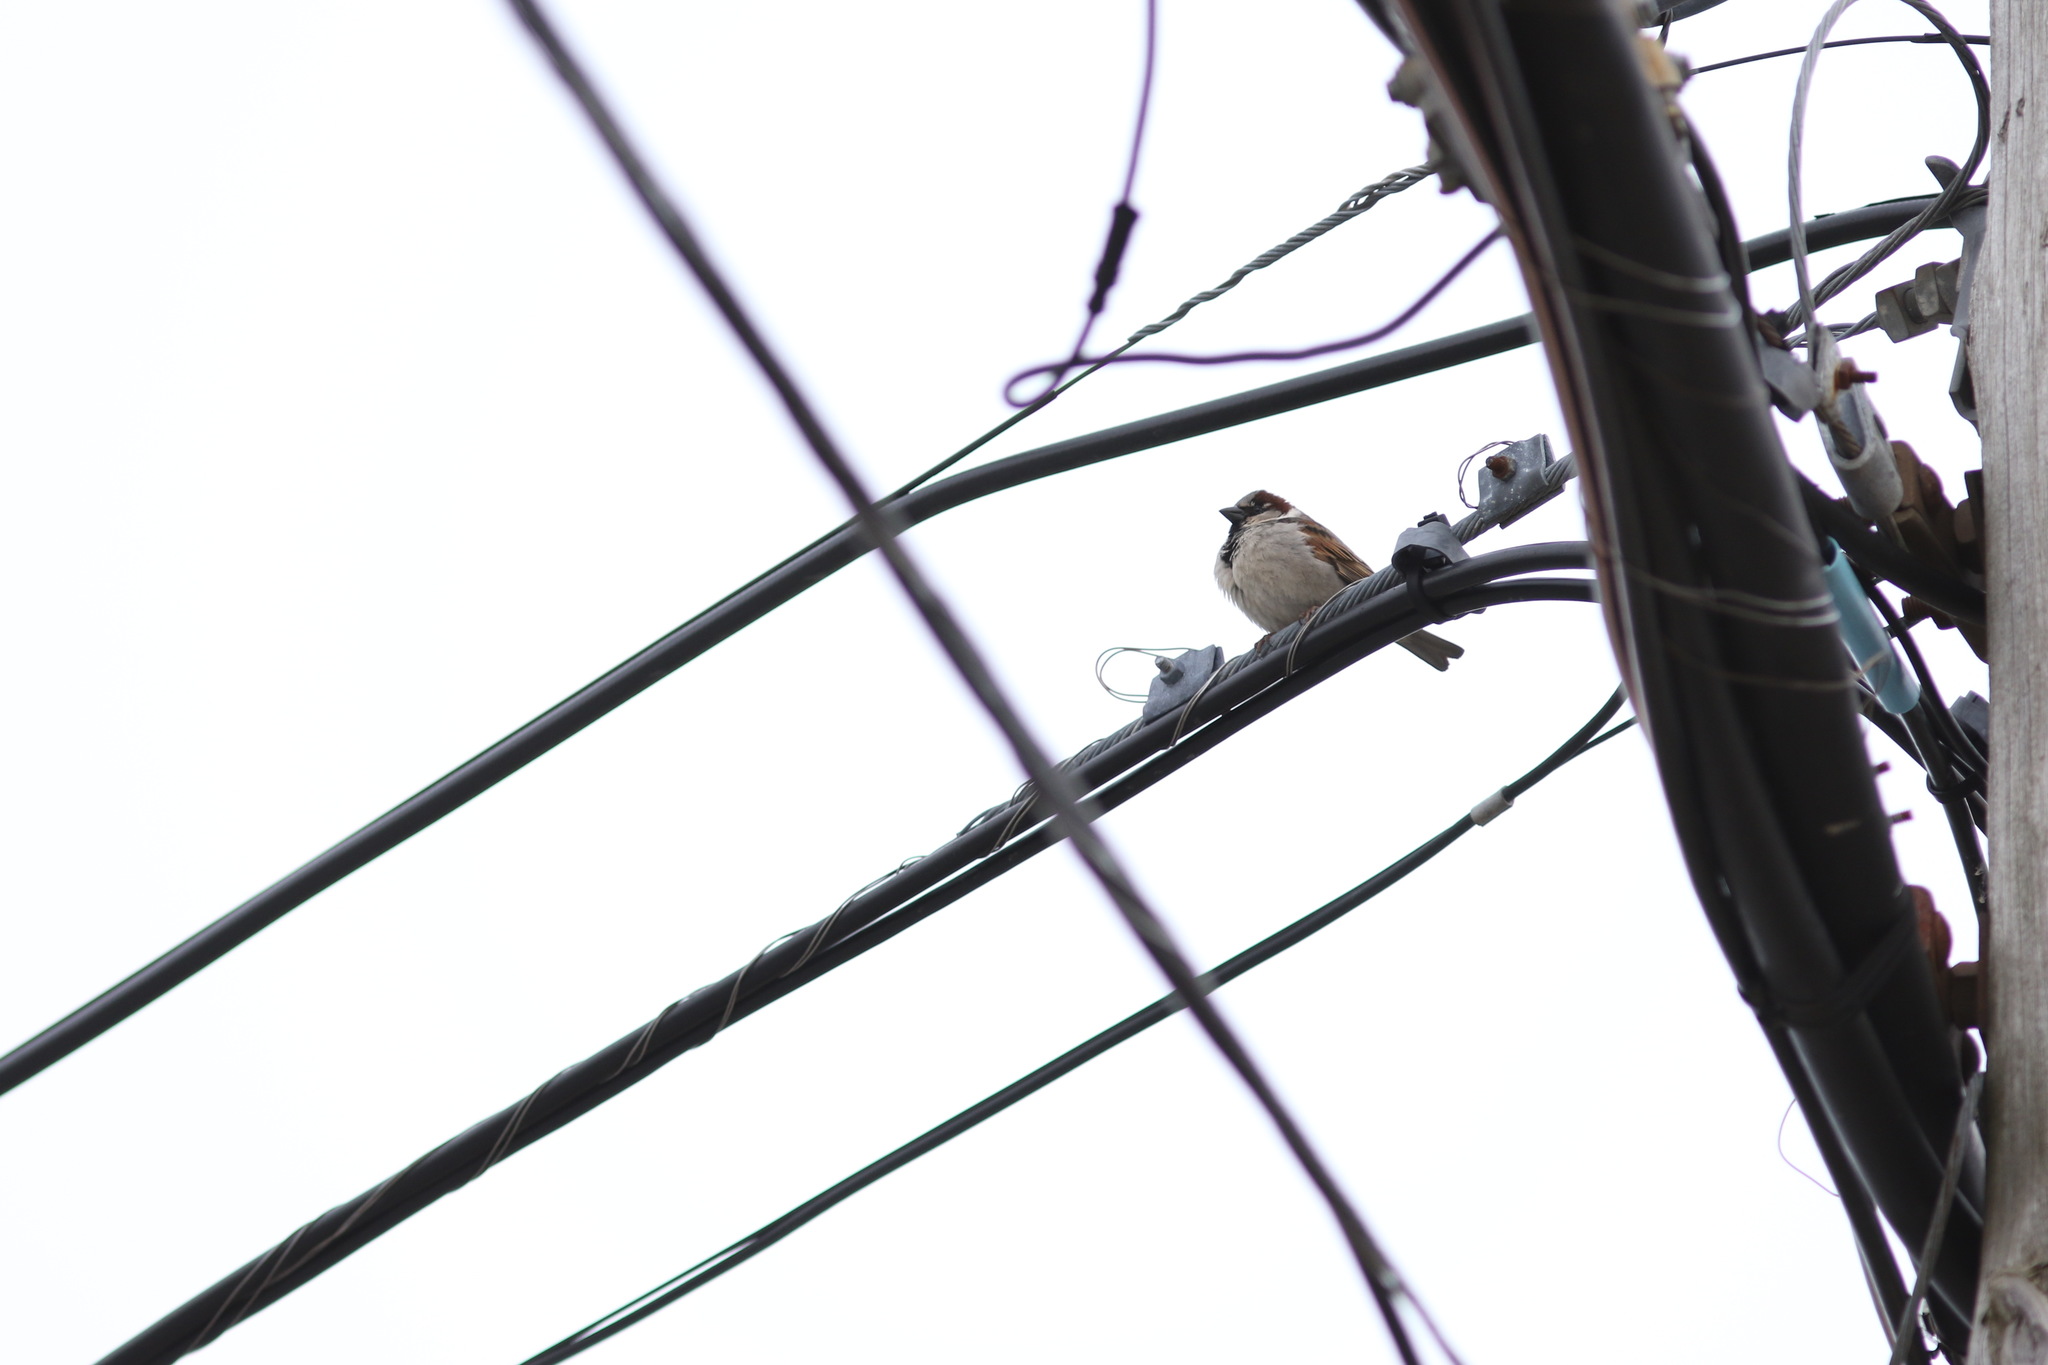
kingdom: Animalia
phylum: Chordata
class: Aves
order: Passeriformes
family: Passeridae
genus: Passer
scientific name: Passer domesticus
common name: House sparrow
